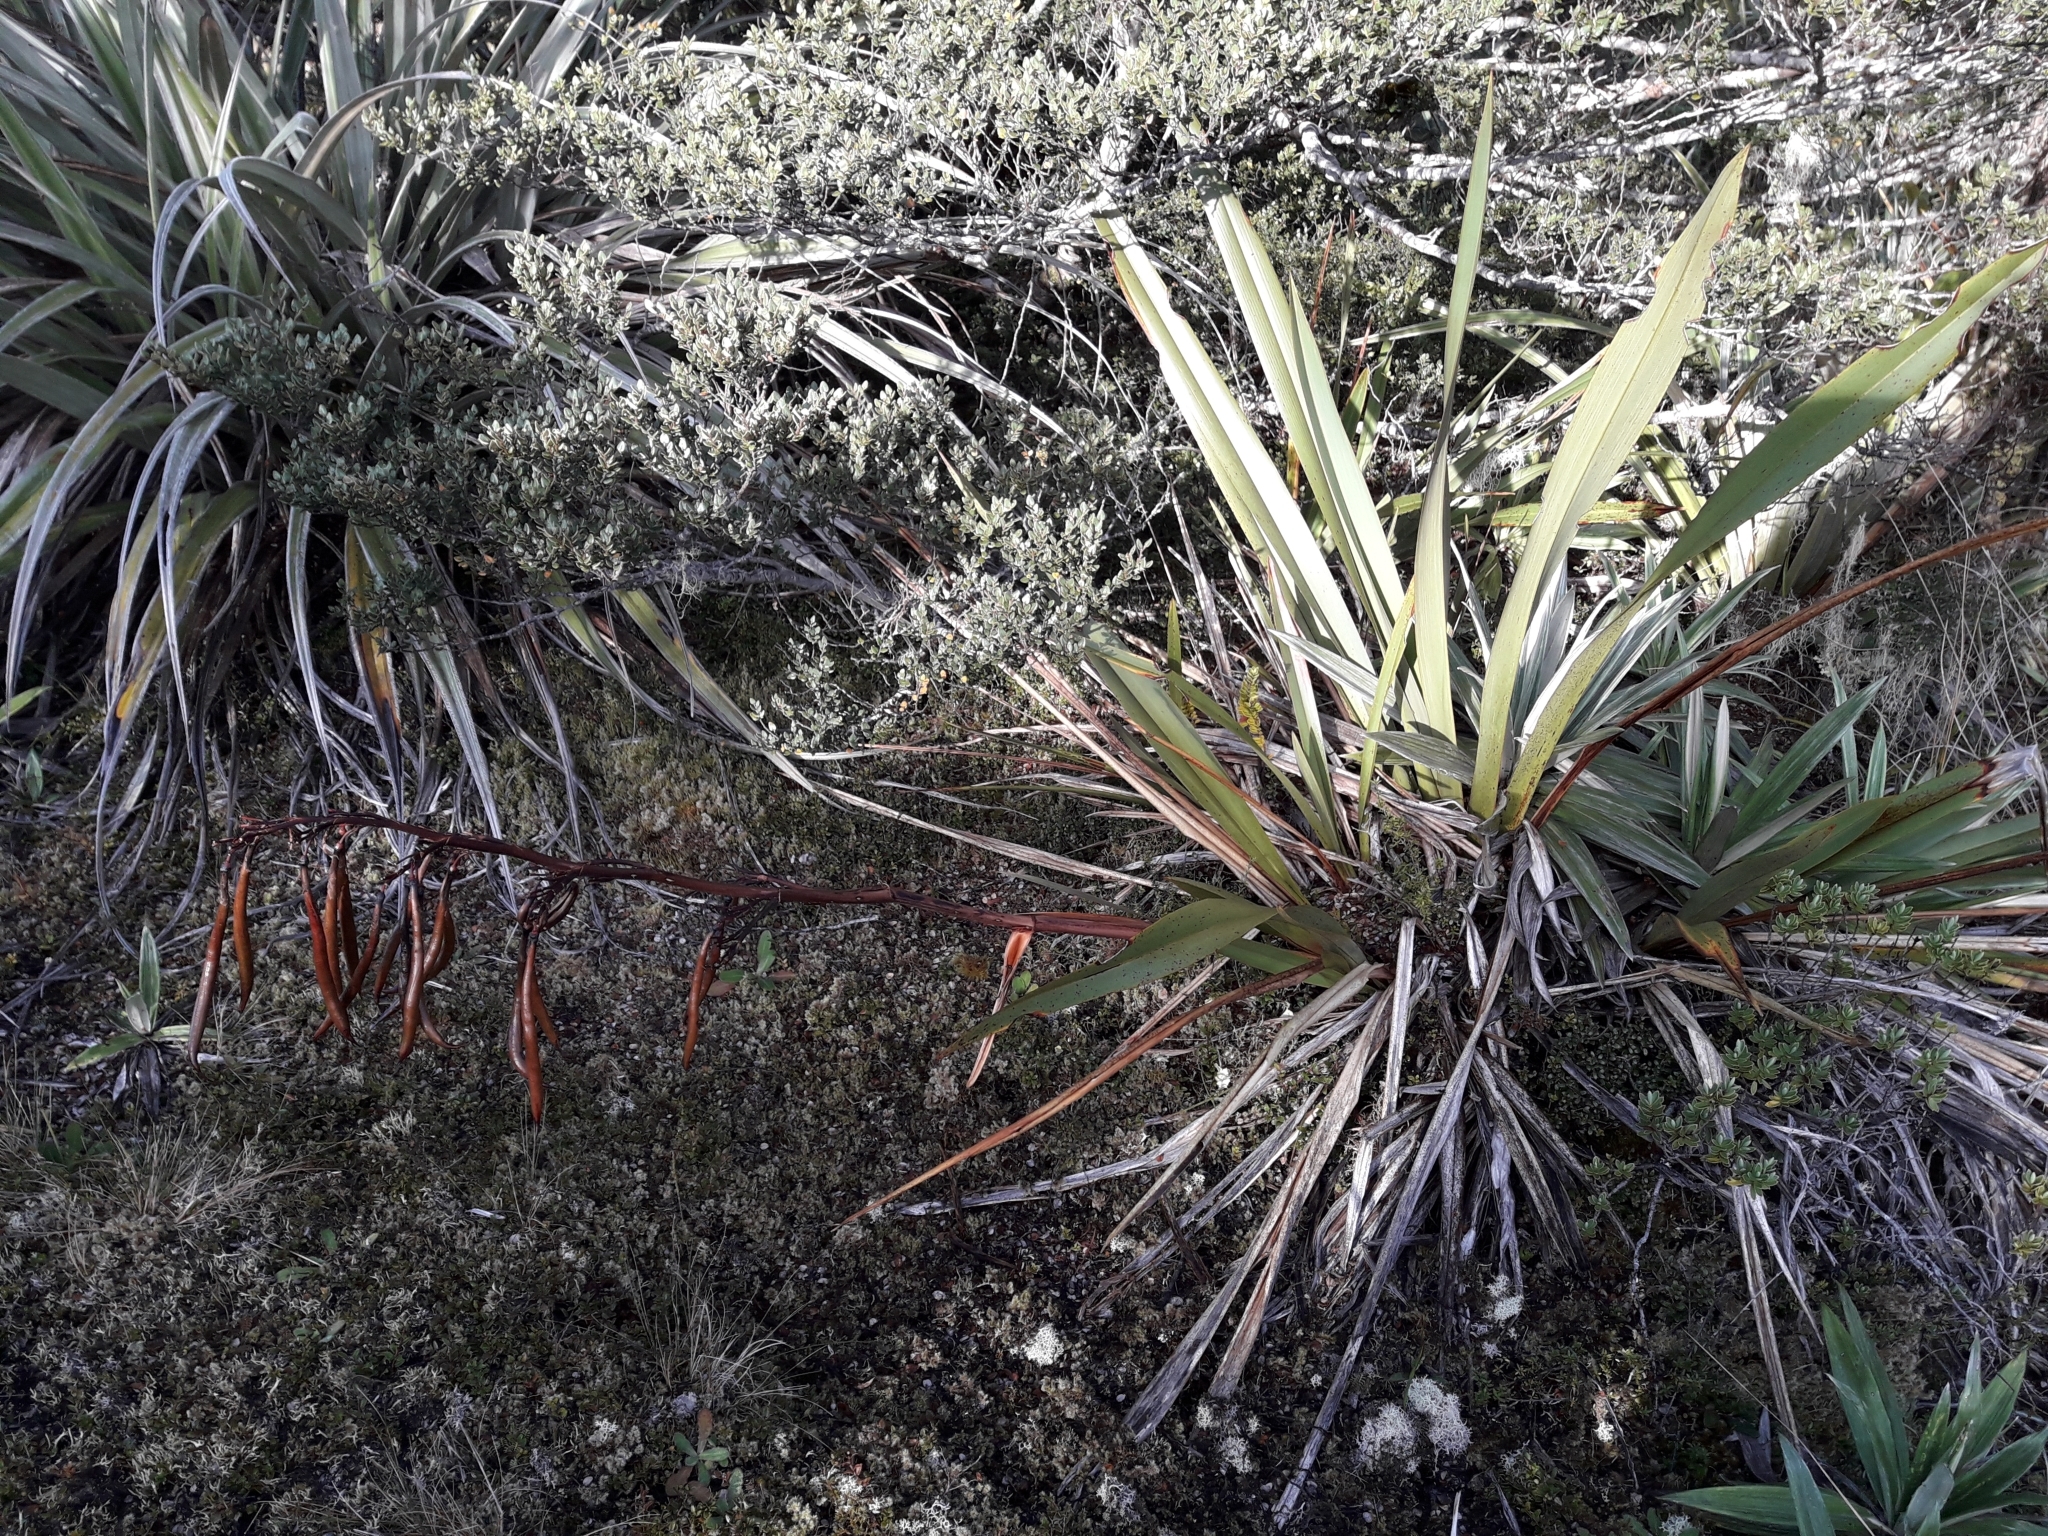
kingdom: Plantae
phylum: Tracheophyta
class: Liliopsida
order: Asparagales
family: Asphodelaceae
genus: Phormium
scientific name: Phormium colensoi
